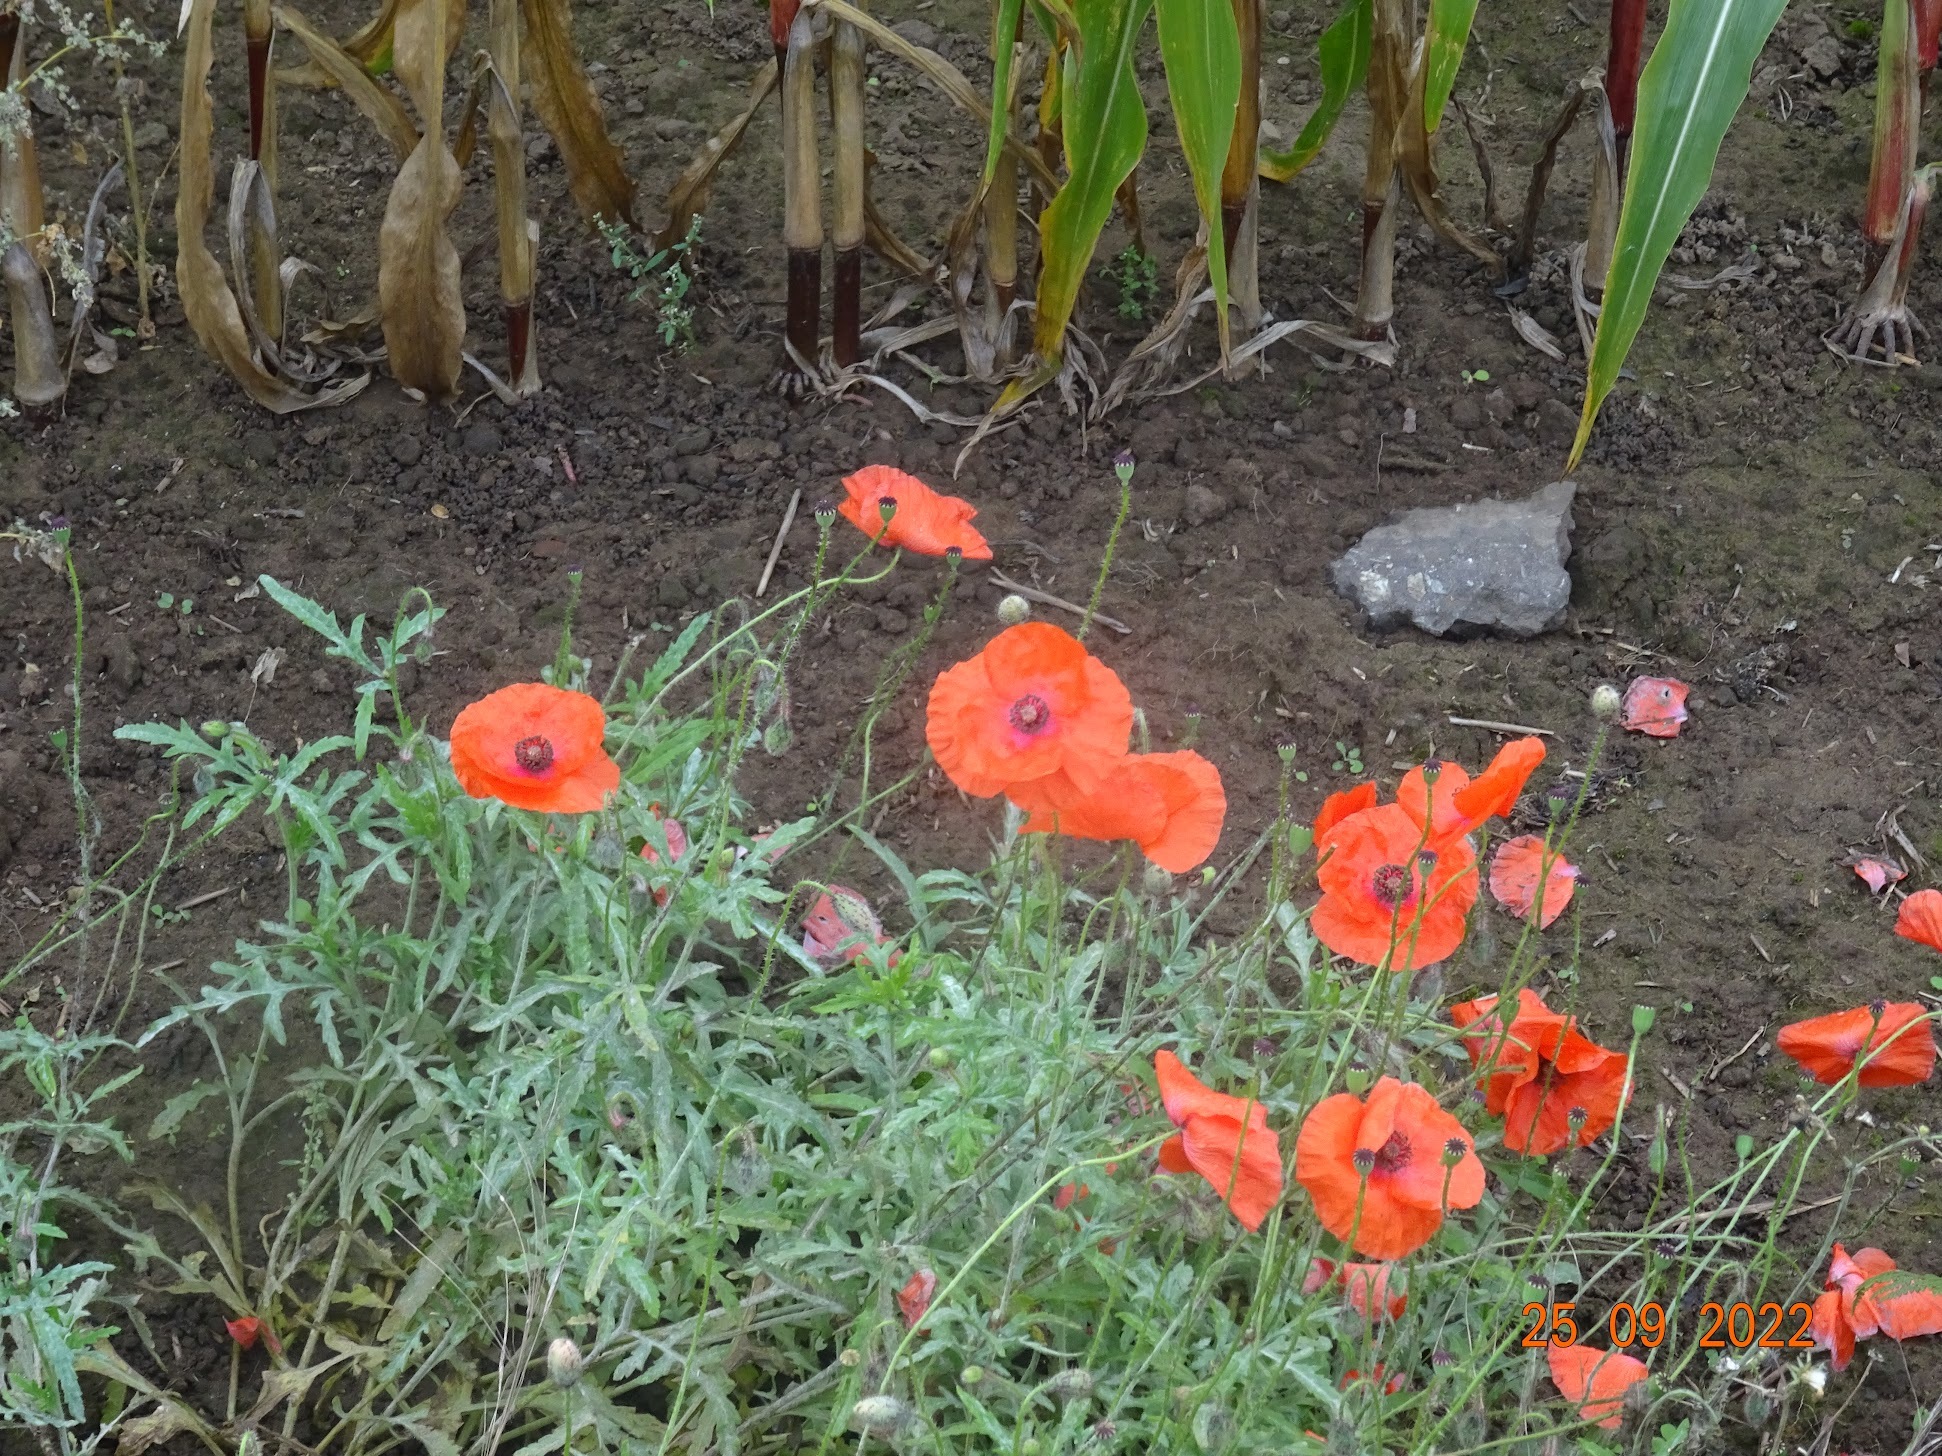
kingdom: Plantae
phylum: Tracheophyta
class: Magnoliopsida
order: Ranunculales
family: Papaveraceae
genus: Papaver
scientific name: Papaver rhoeas
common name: Corn poppy
